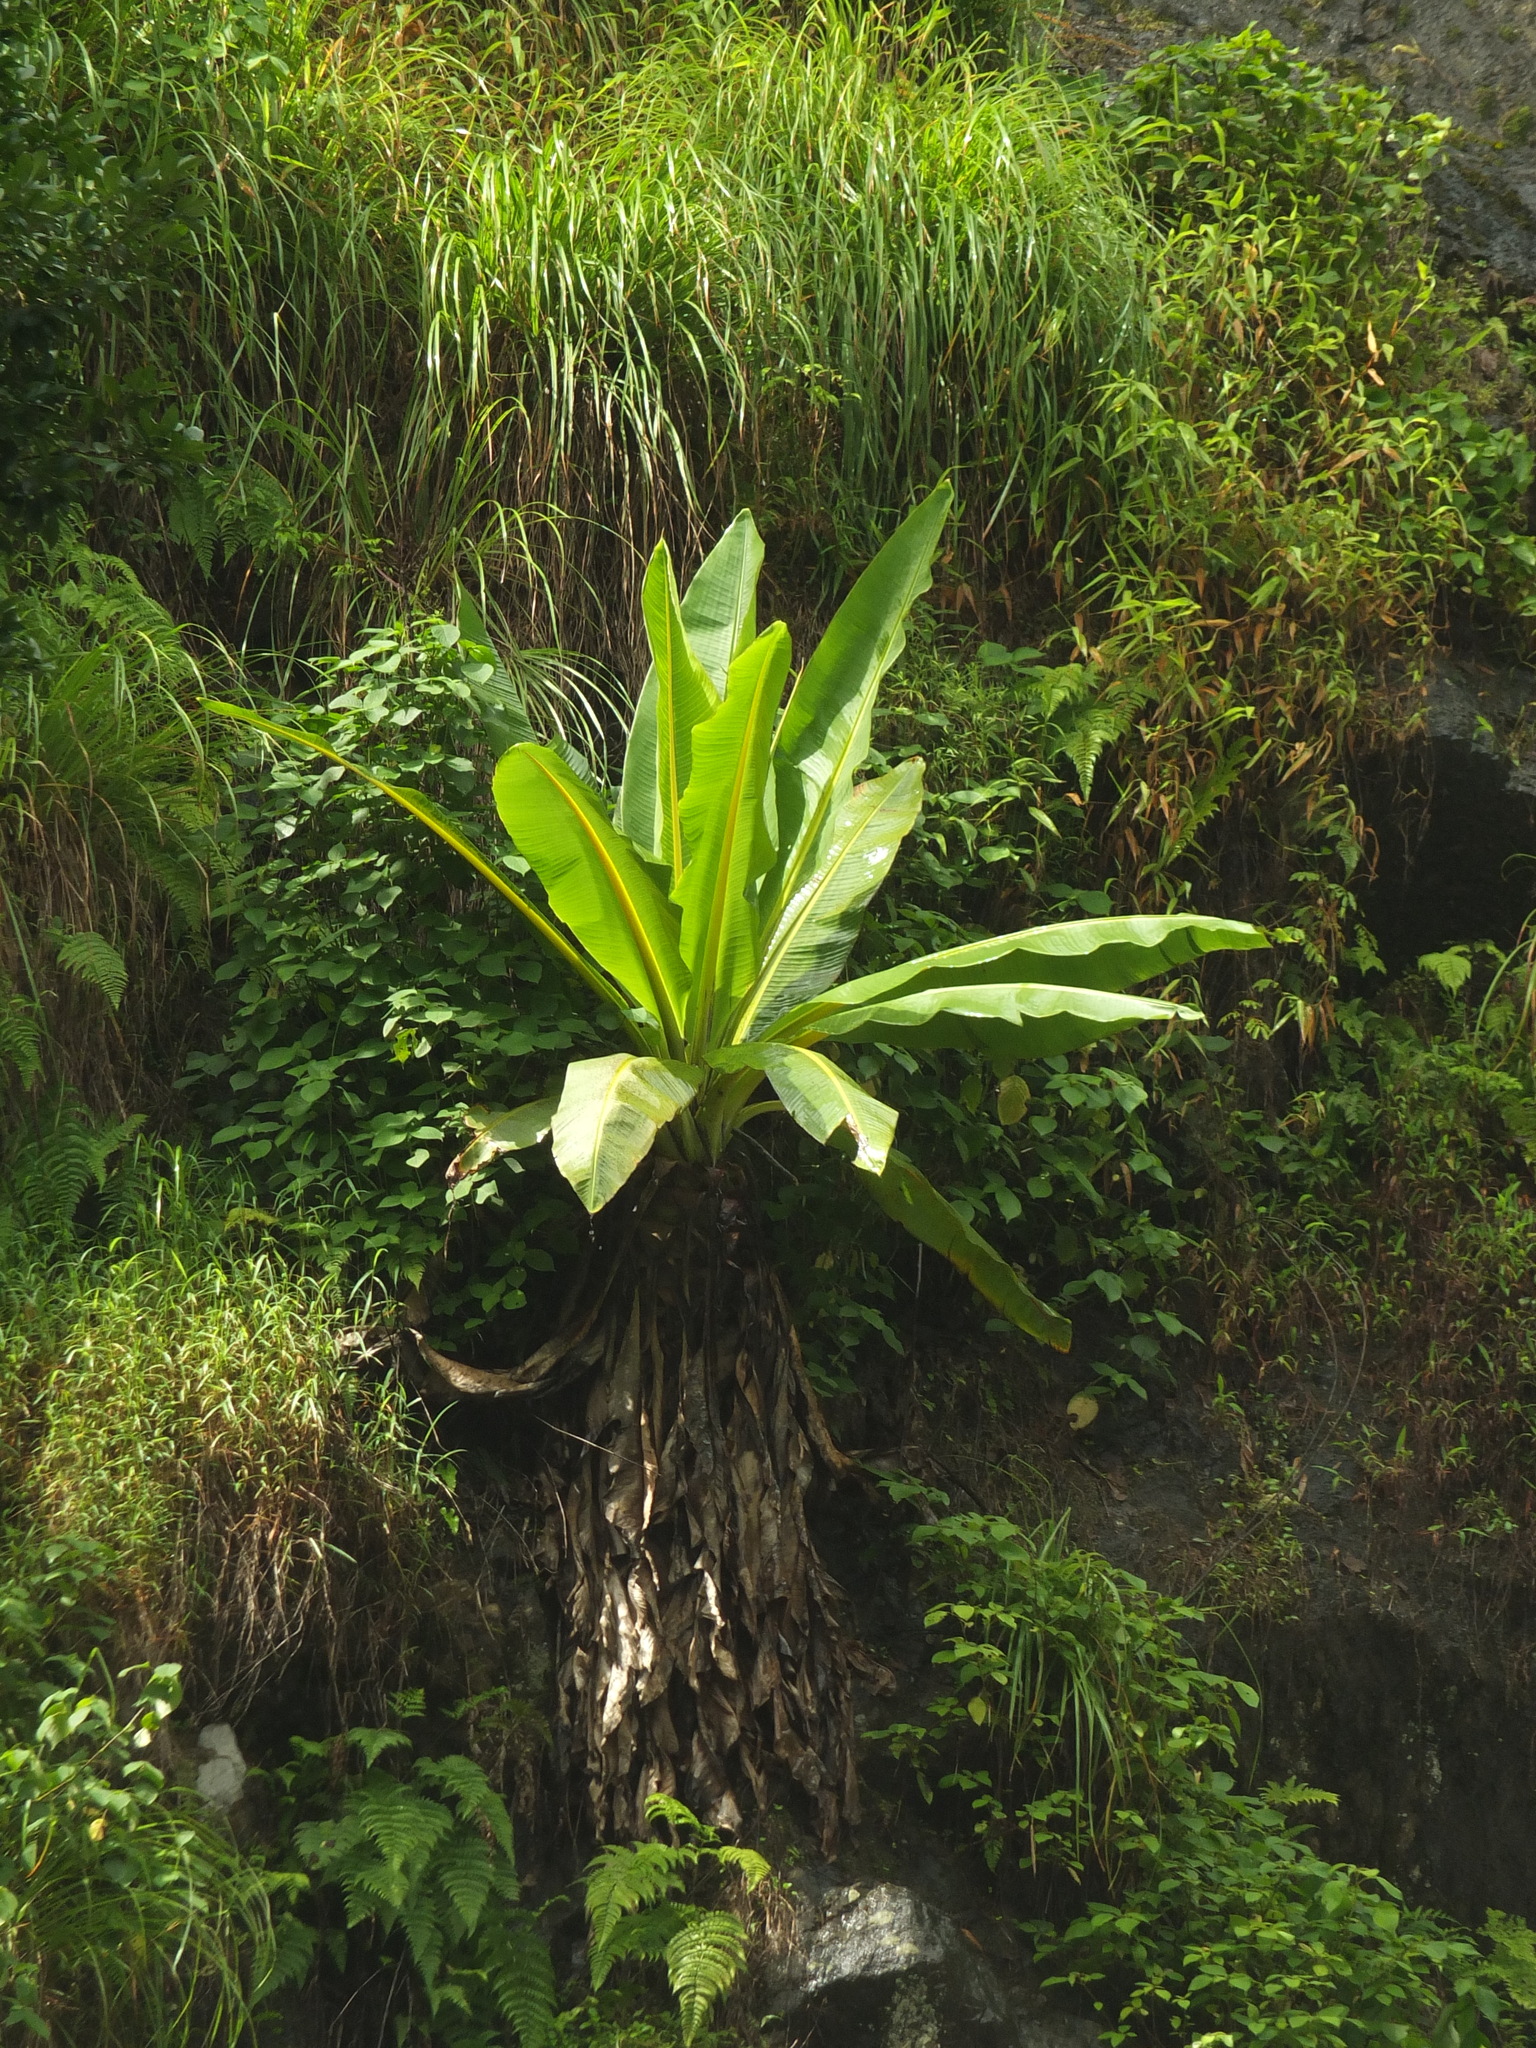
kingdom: Plantae
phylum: Tracheophyta
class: Liliopsida
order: Zingiberales
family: Musaceae
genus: Ensete
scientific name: Ensete superbum
